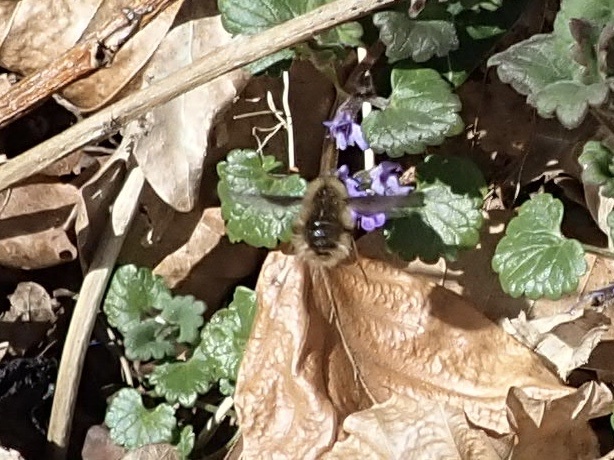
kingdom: Animalia
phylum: Arthropoda
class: Insecta
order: Diptera
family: Bombyliidae
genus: Bombylius
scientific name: Bombylius major
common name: Bee fly
